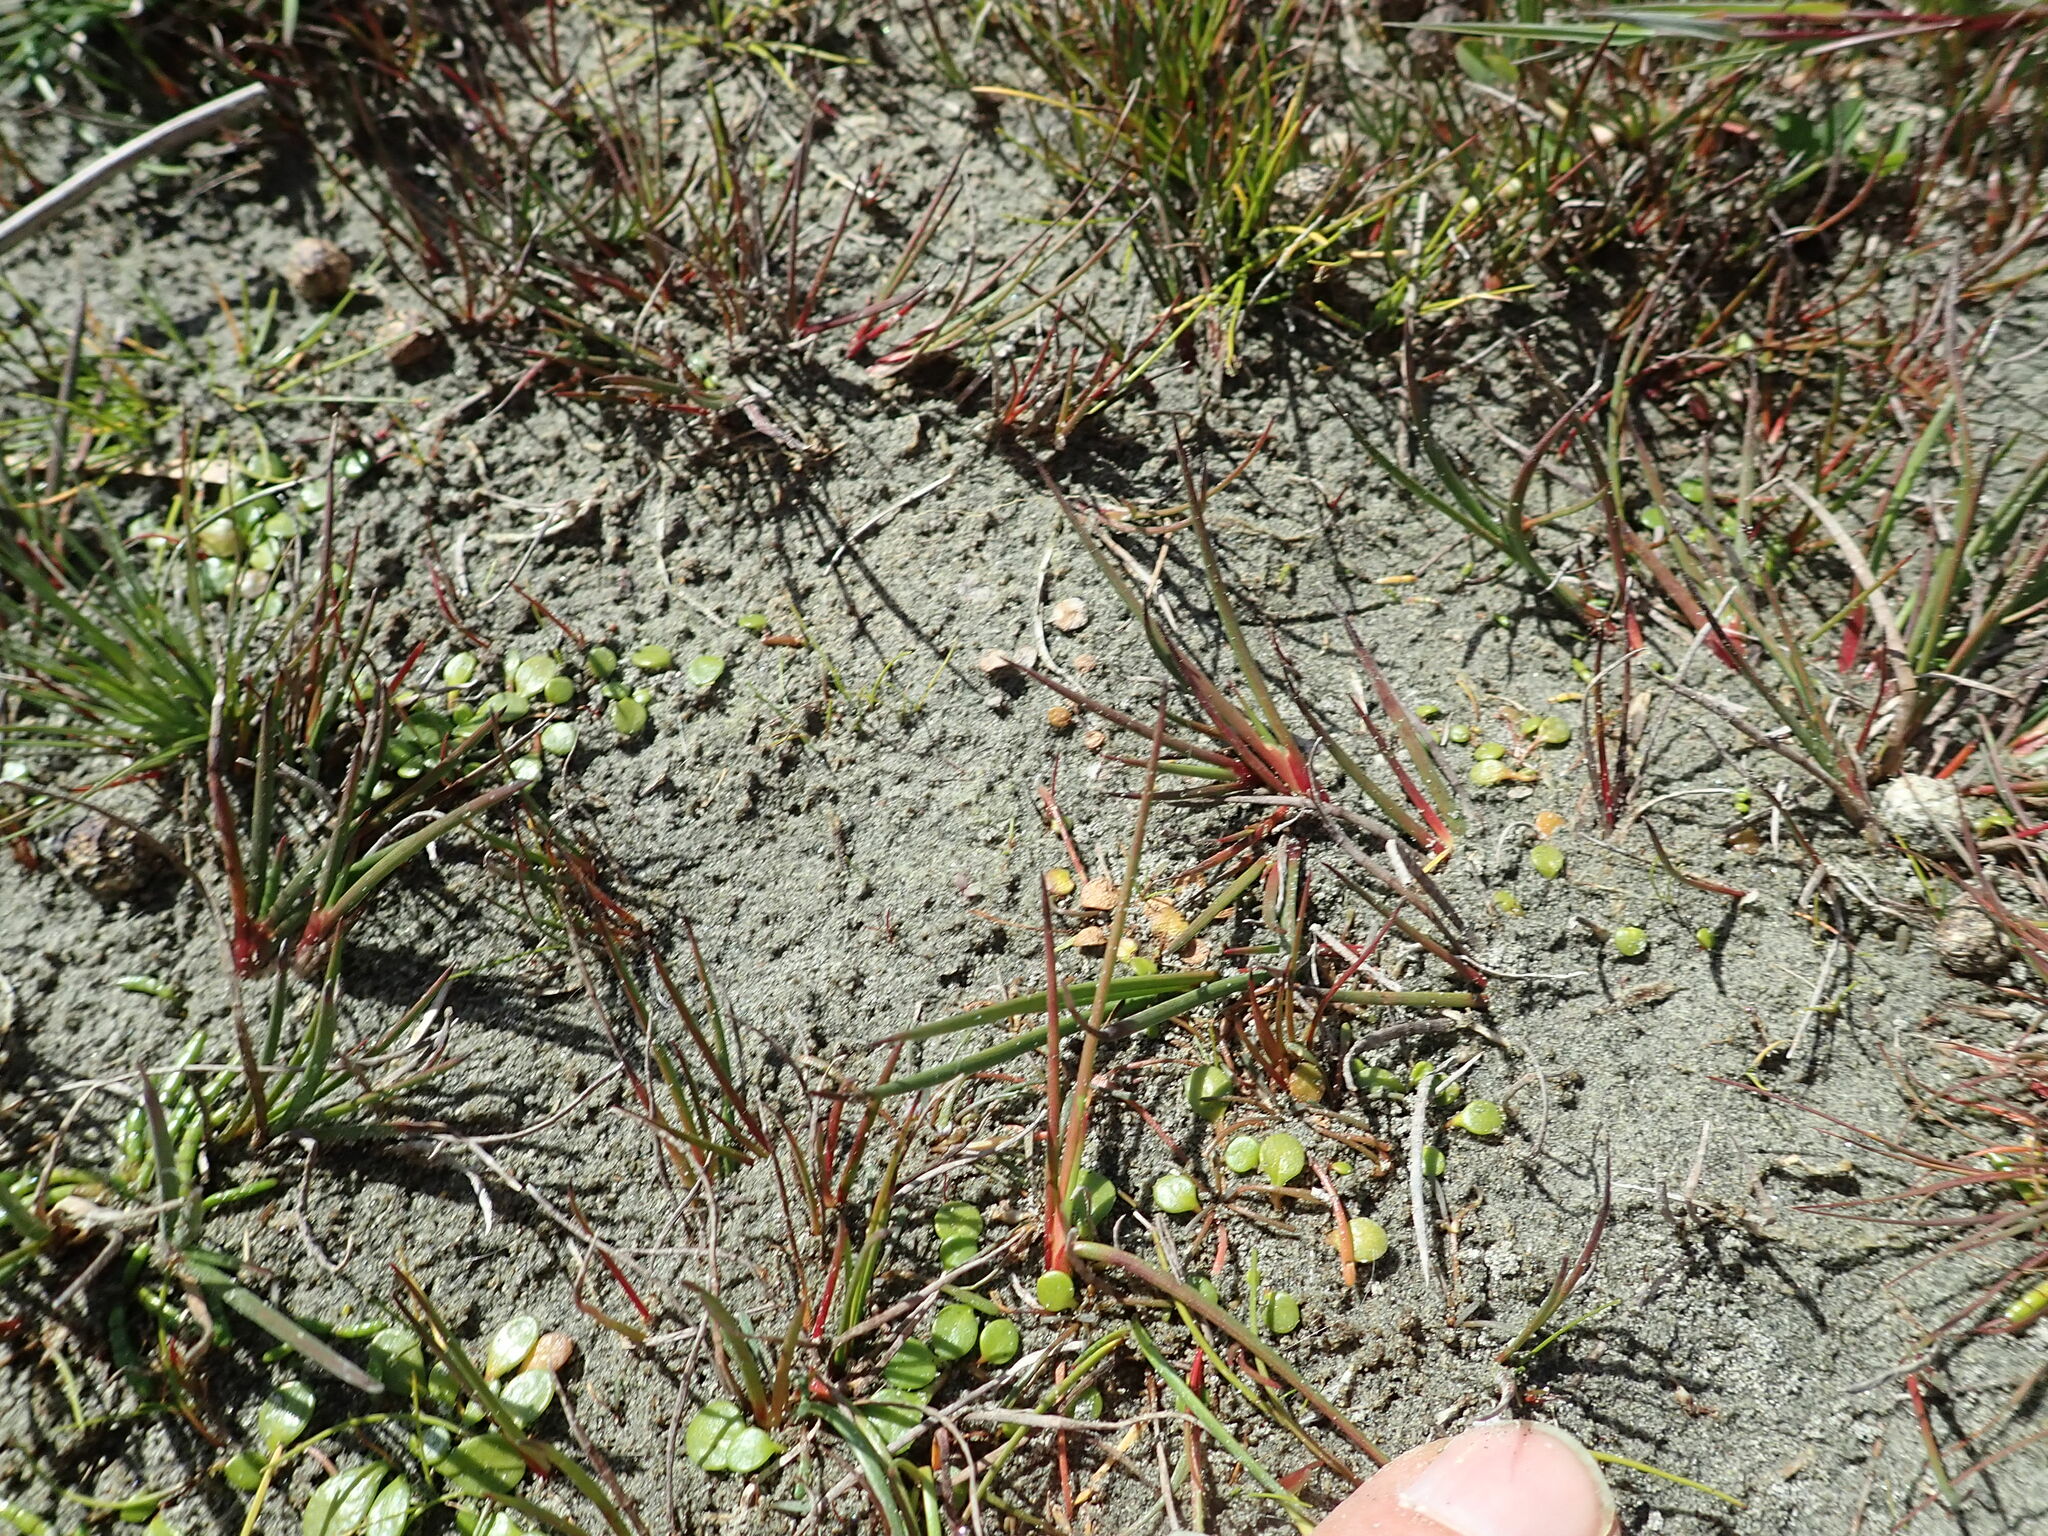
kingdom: Plantae
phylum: Tracheophyta
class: Magnoliopsida
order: Asterales
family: Goodeniaceae
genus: Goodenia
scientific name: Goodenia heenanii
